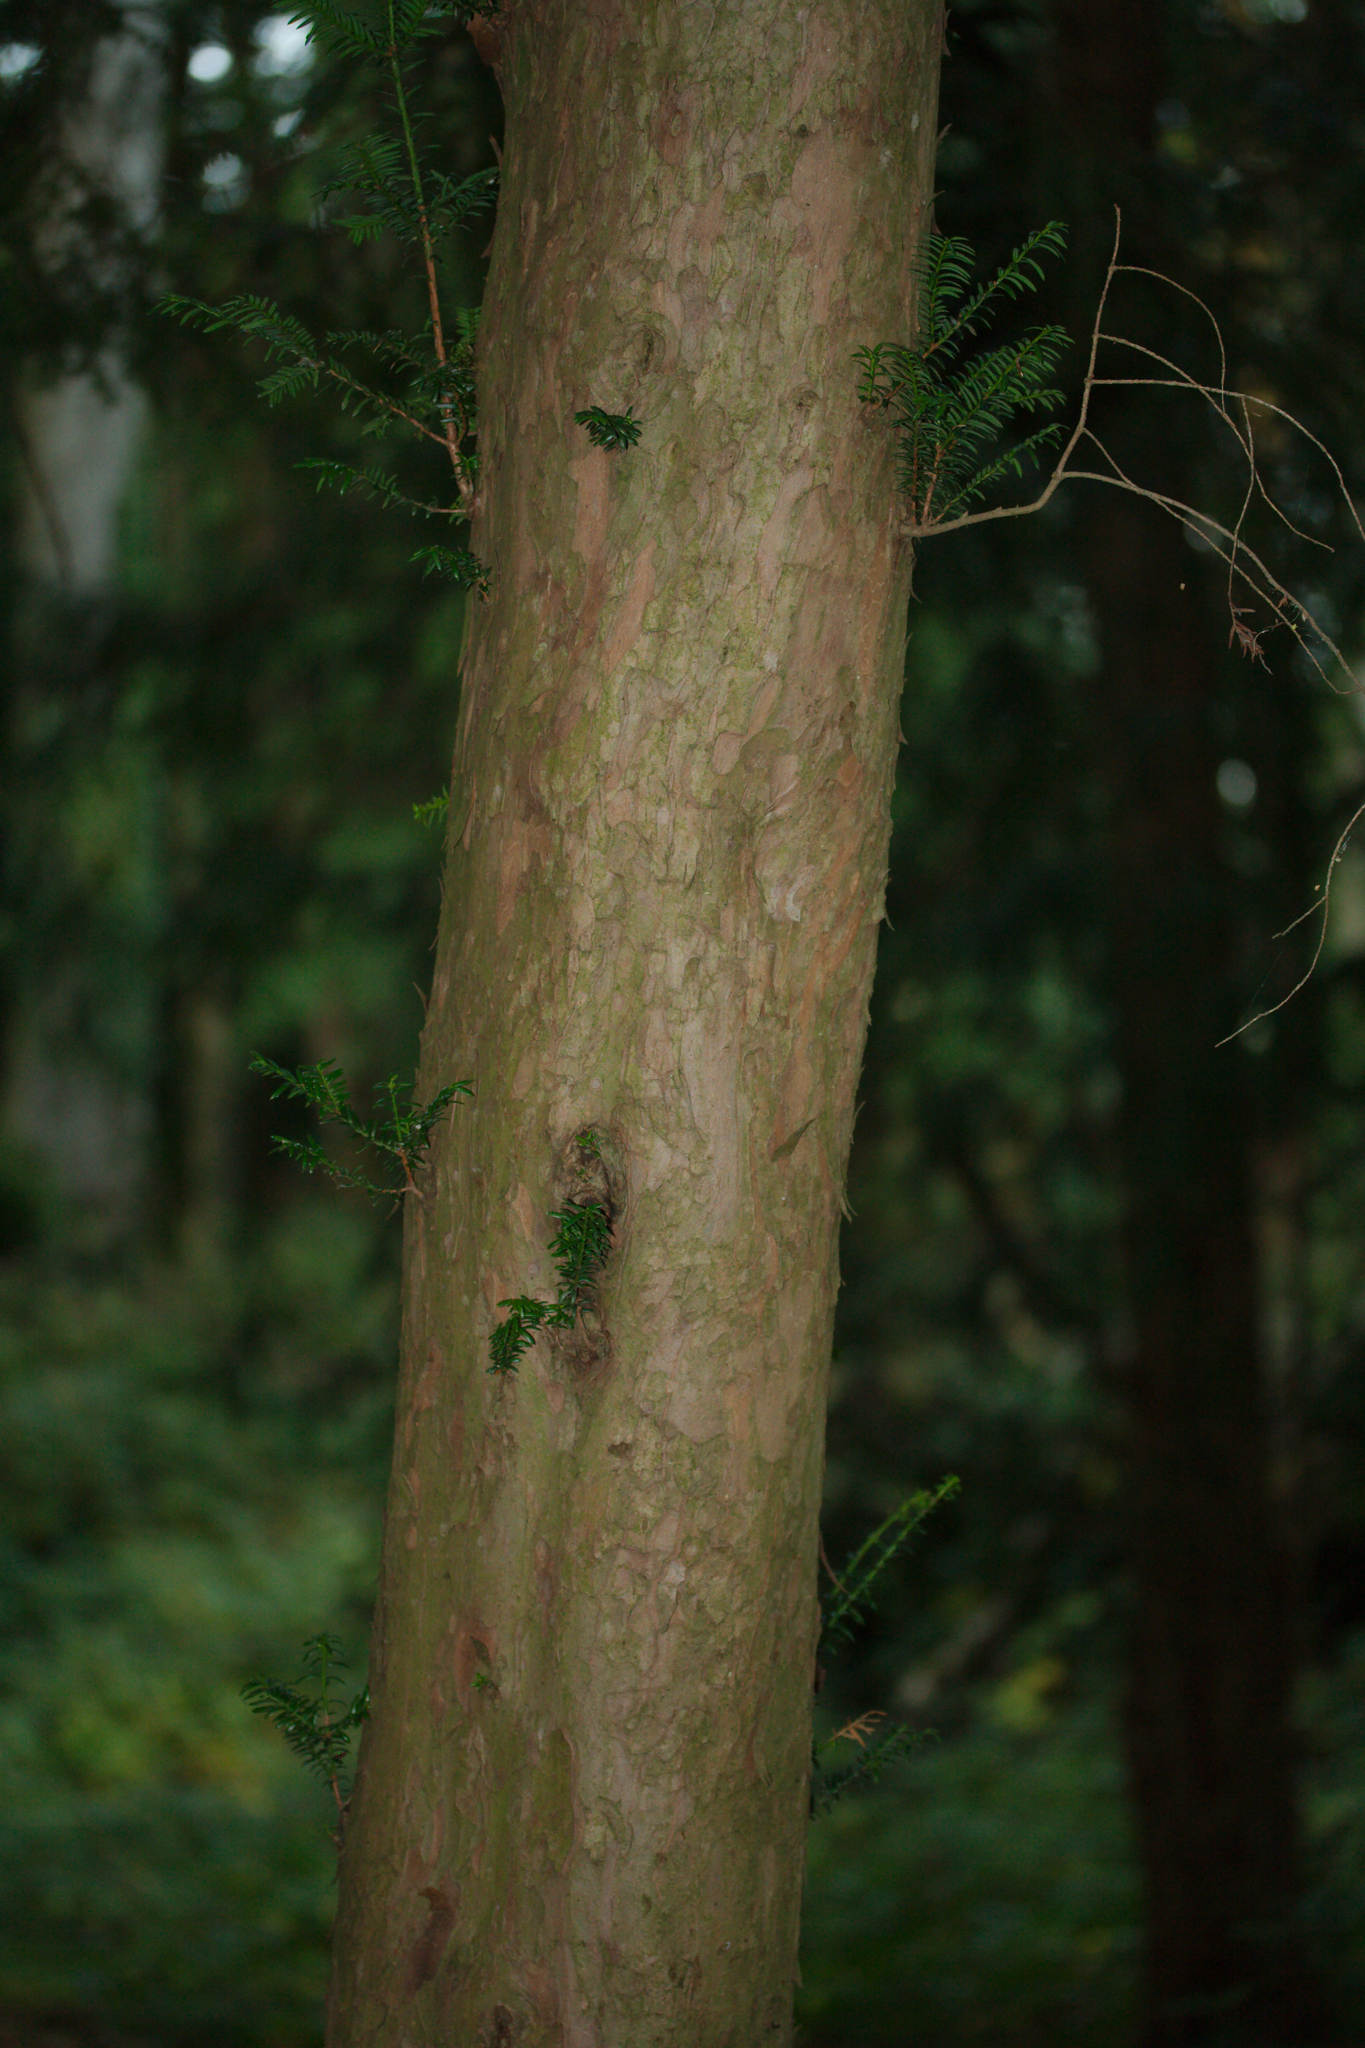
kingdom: Plantae
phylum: Tracheophyta
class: Pinopsida
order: Pinales
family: Taxaceae
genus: Taxus
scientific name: Taxus baccata
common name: Yew
